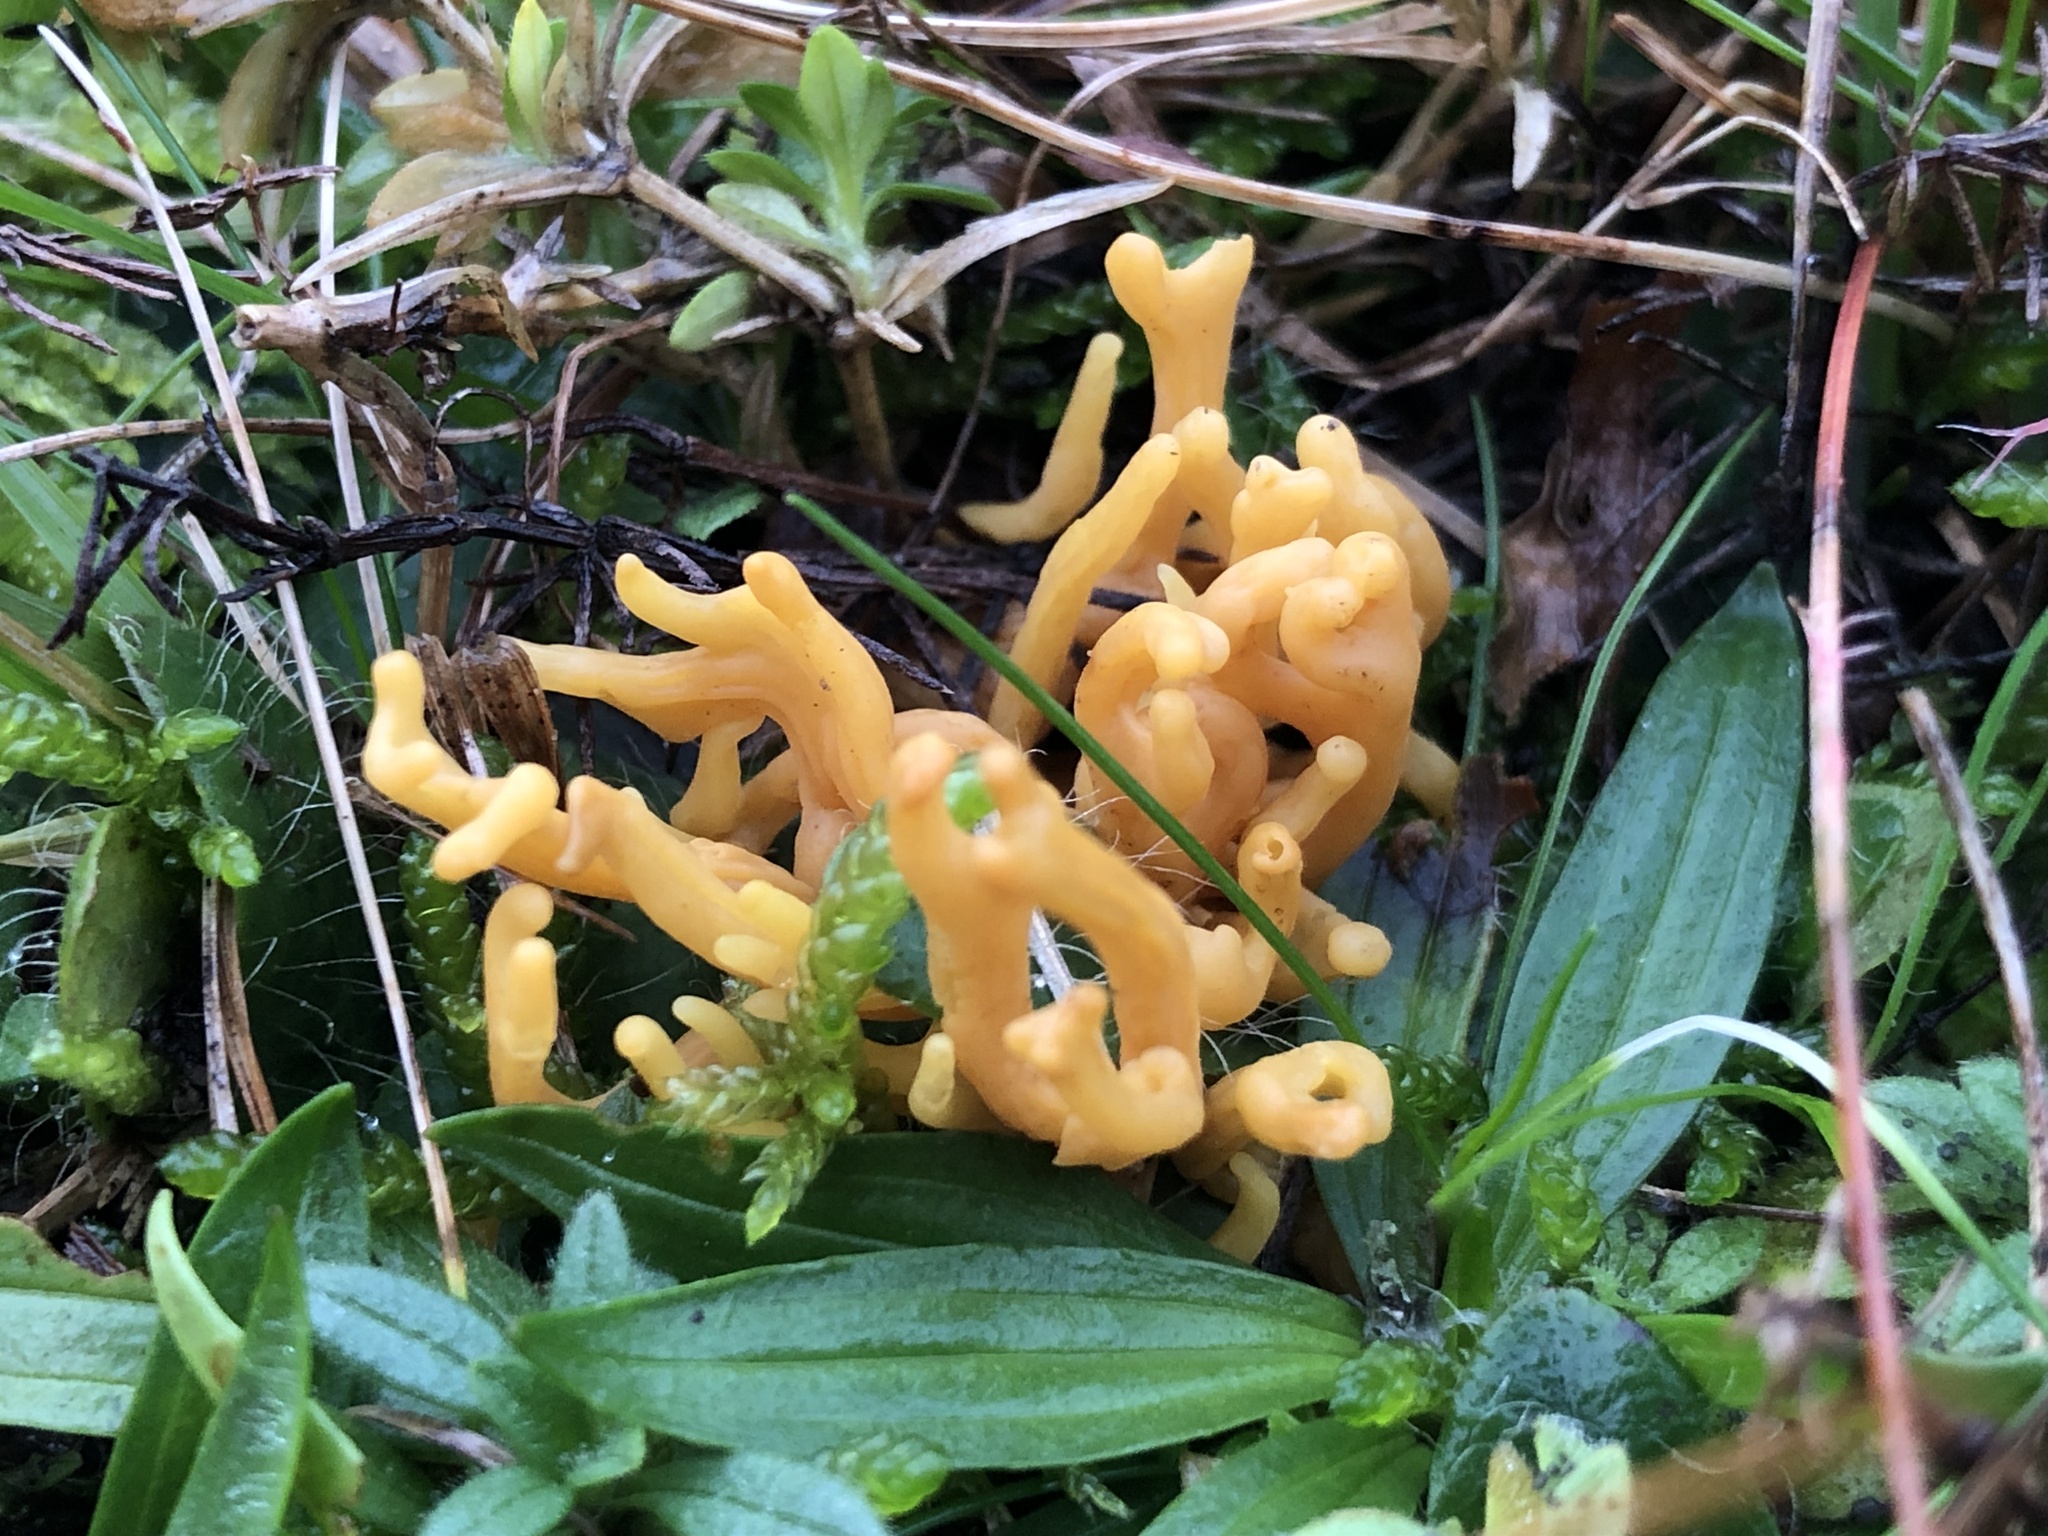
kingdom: Fungi
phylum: Basidiomycota
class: Agaricomycetes
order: Agaricales
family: Clavariaceae
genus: Clavulinopsis
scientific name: Clavulinopsis corniculata
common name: Meadow coral
